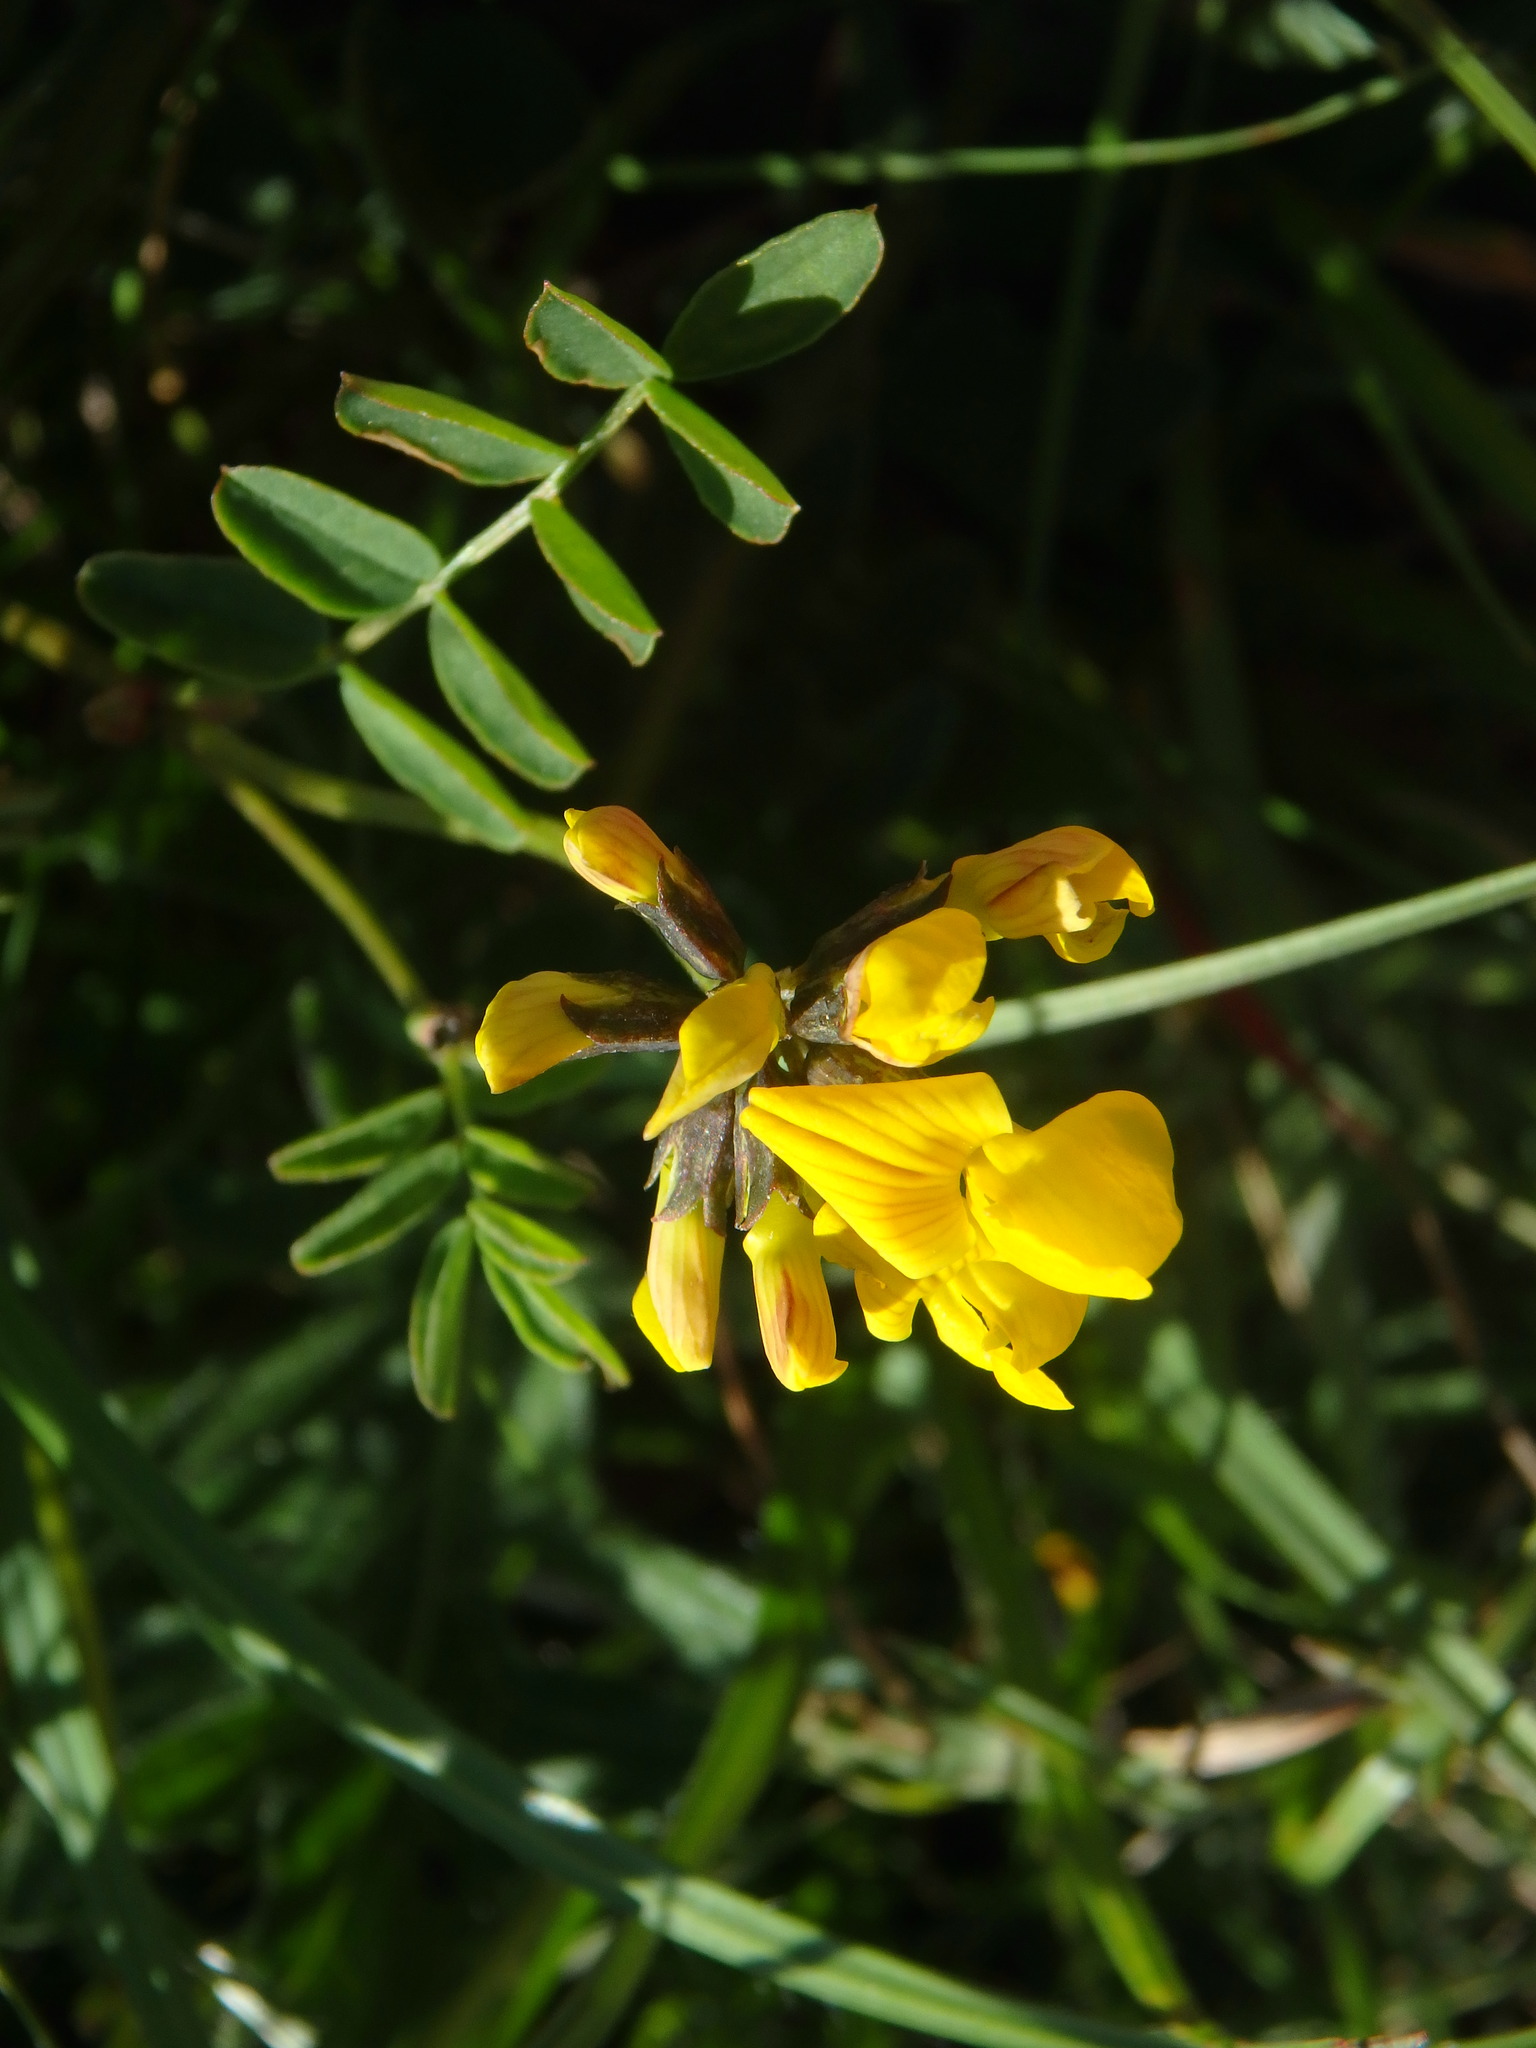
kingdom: Plantae
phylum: Tracheophyta
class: Magnoliopsida
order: Fabales
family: Fabaceae
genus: Hippocrepis
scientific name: Hippocrepis comosa
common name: Horseshoe vetch
